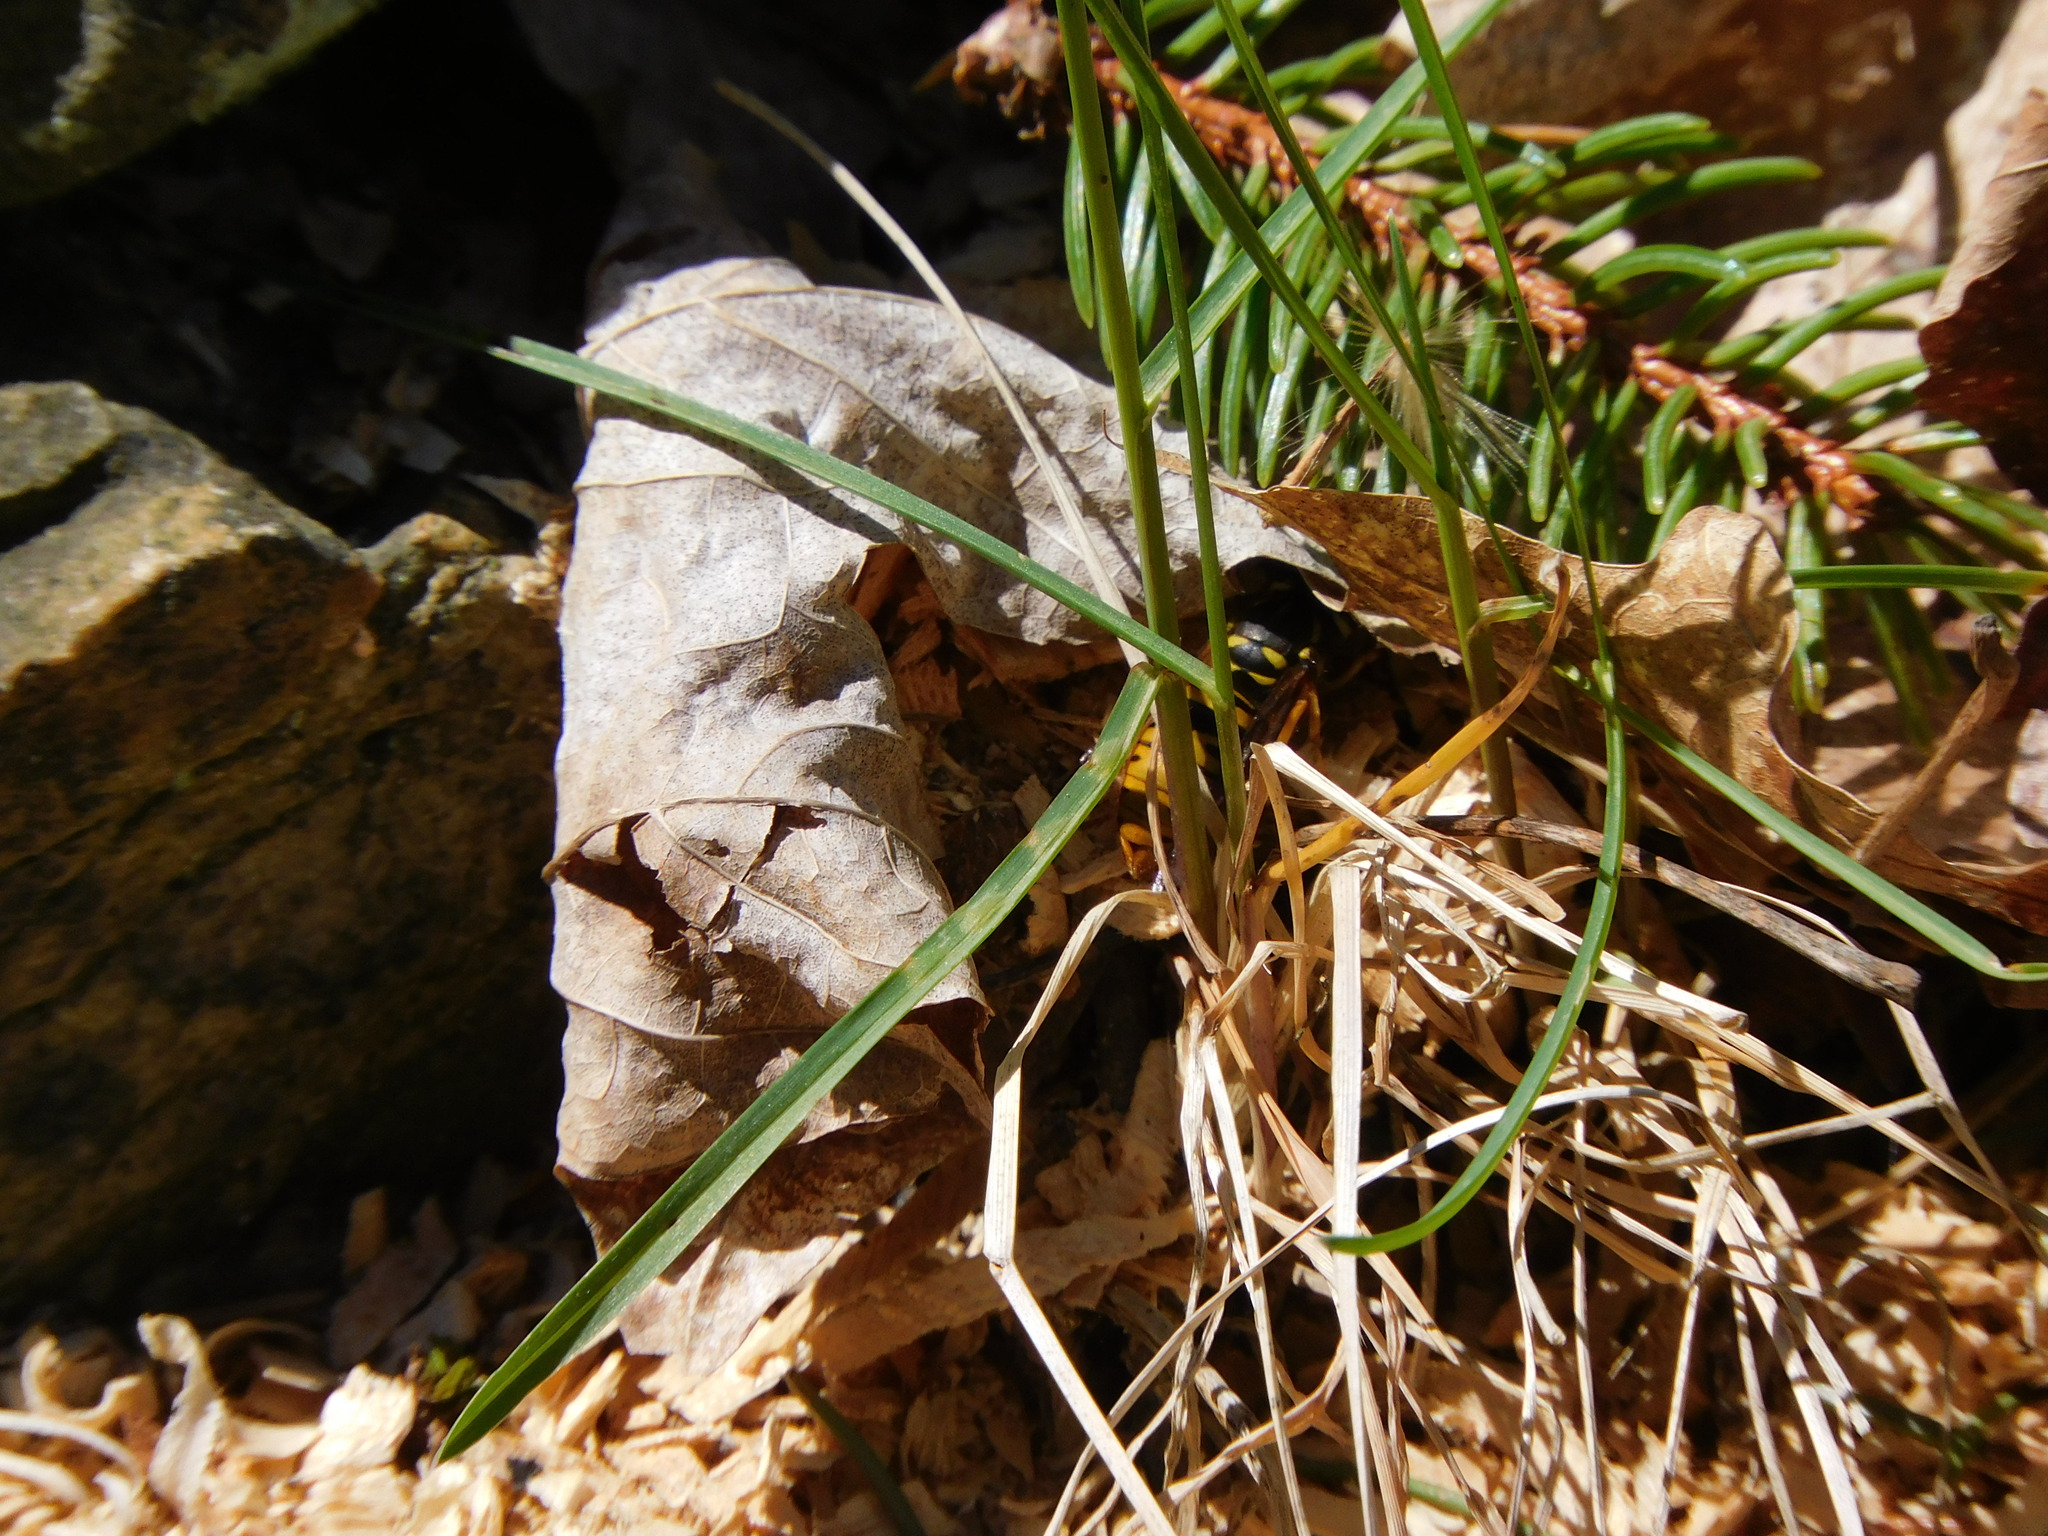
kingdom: Animalia
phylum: Arthropoda
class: Insecta
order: Hymenoptera
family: Vespidae
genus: Vespula
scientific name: Vespula maculifrons
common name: Eastern yellowjacket
